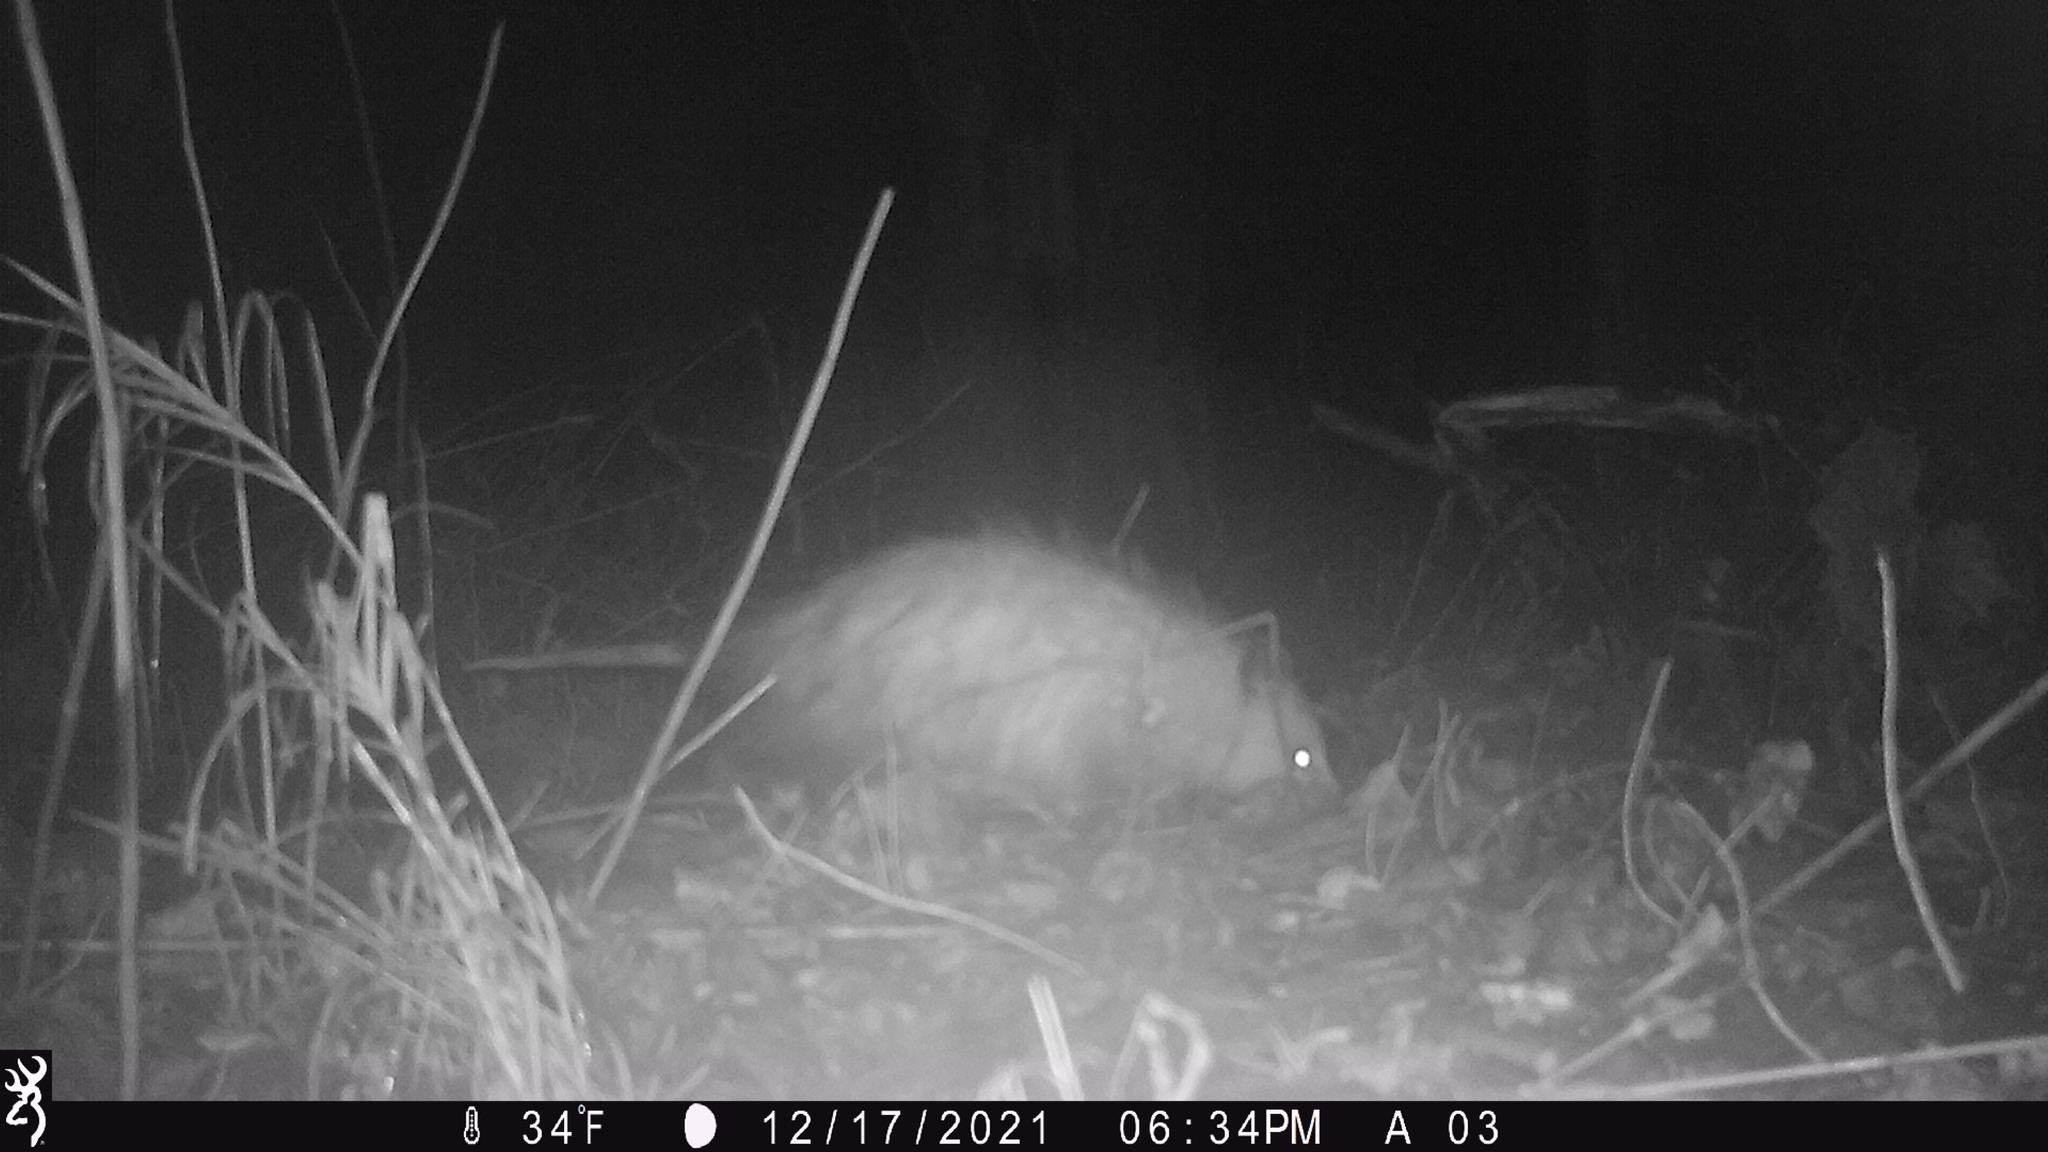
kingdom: Animalia
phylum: Chordata
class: Mammalia
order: Didelphimorphia
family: Didelphidae
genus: Didelphis
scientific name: Didelphis virginiana
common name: Virginia opossum
